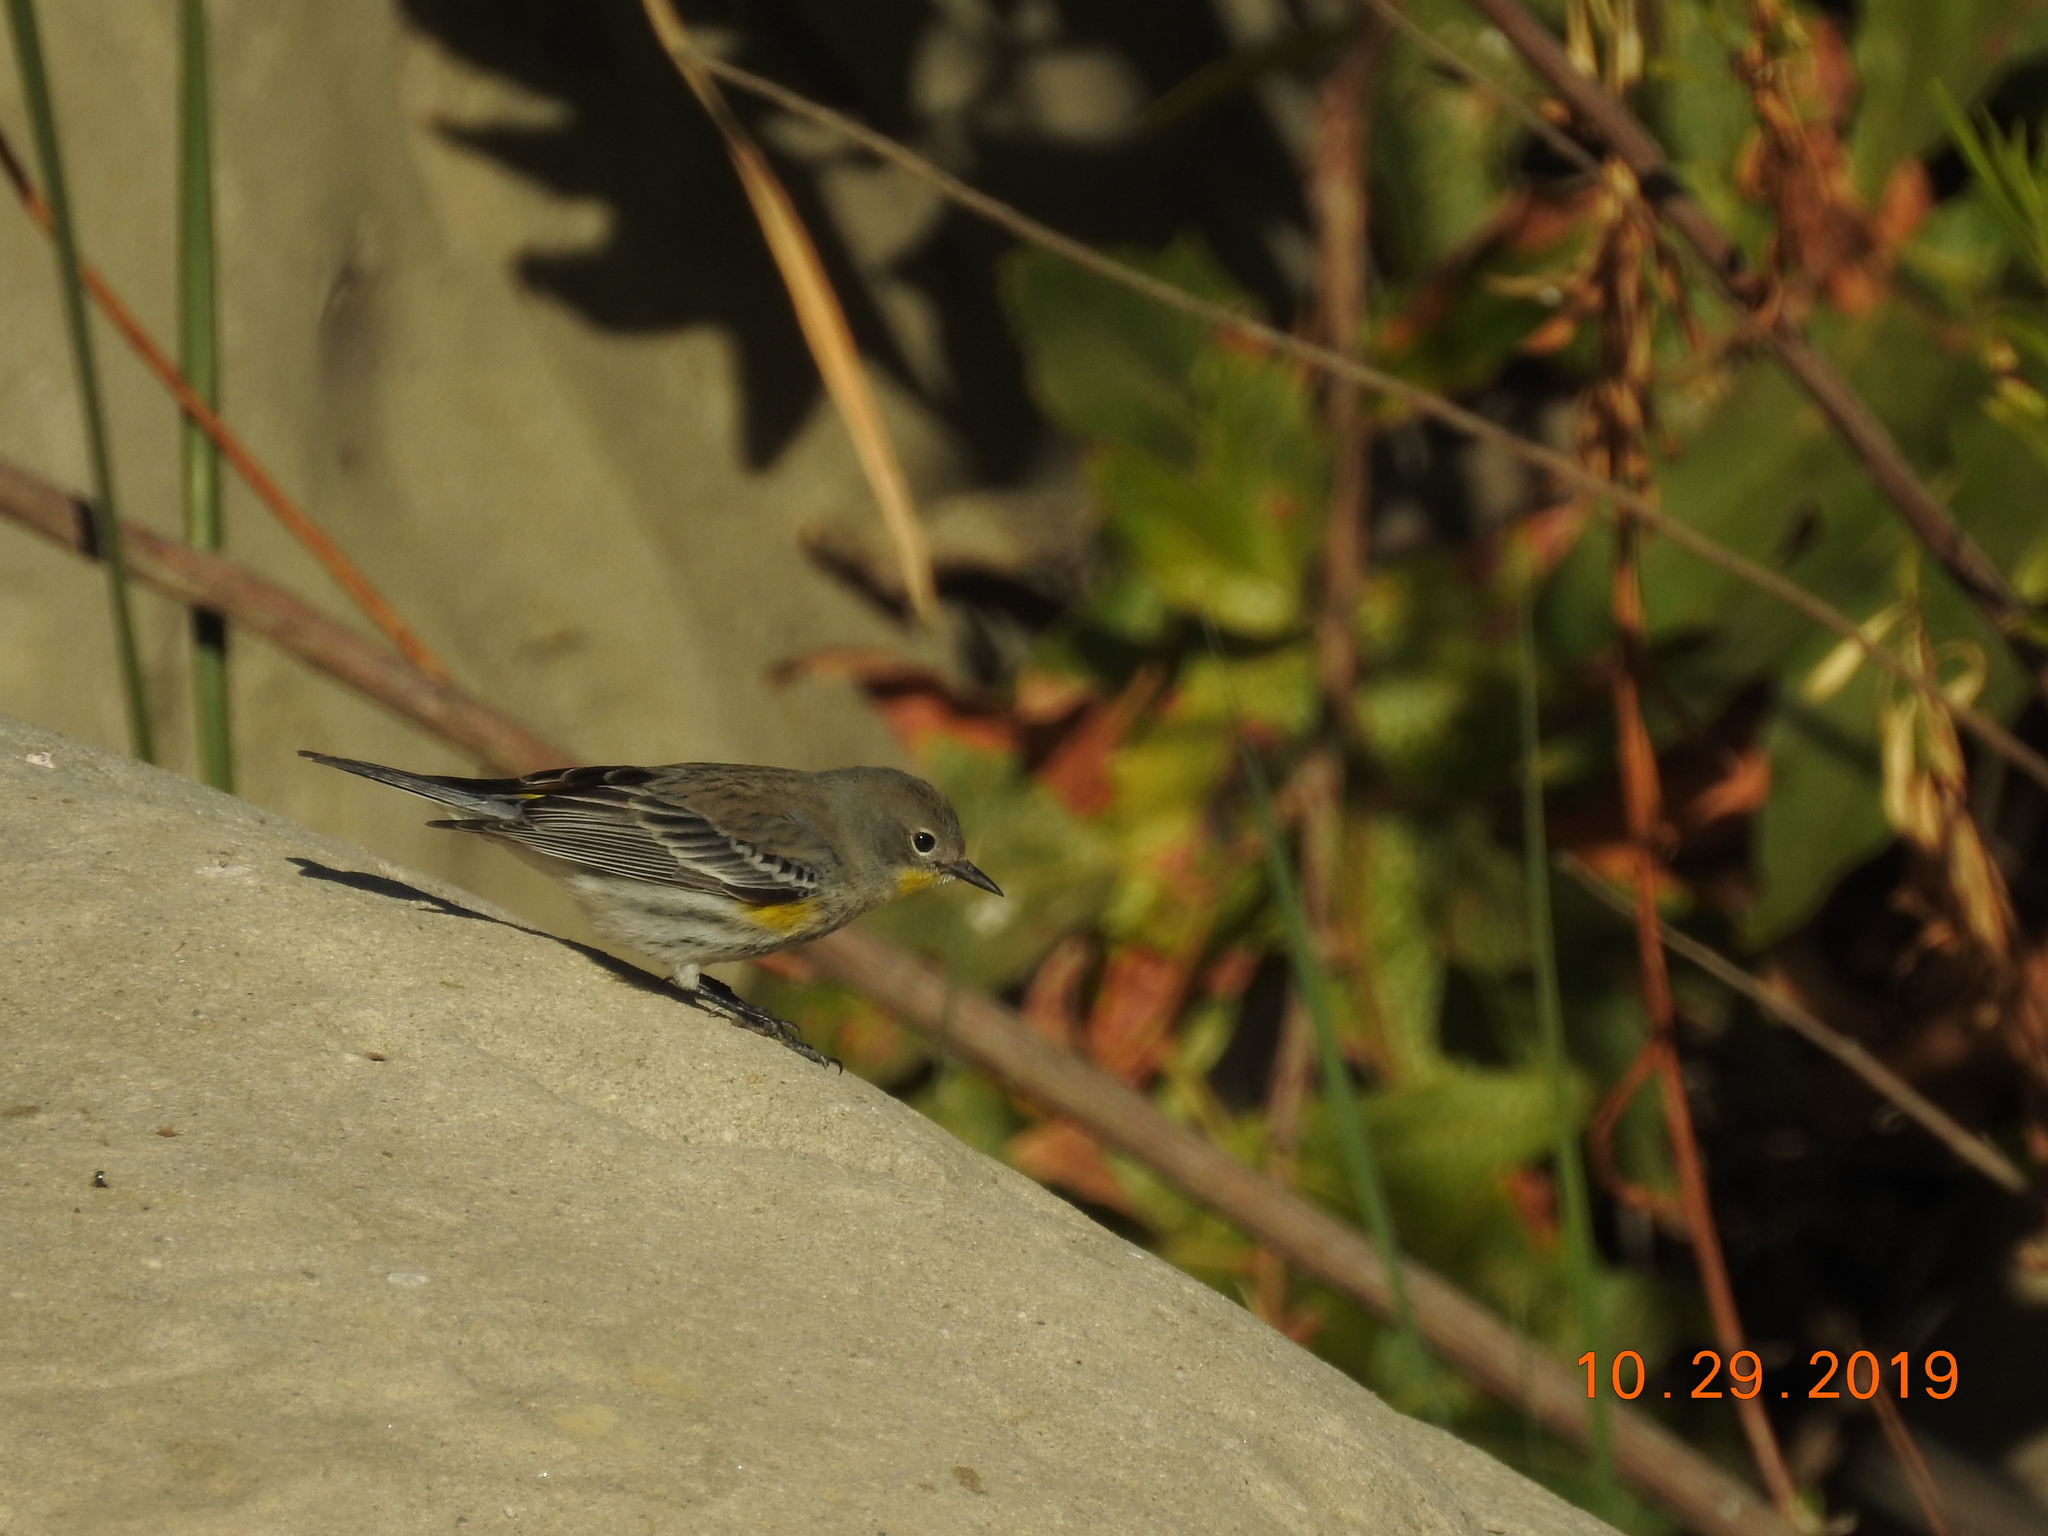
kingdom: Animalia
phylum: Chordata
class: Aves
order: Passeriformes
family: Parulidae
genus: Setophaga
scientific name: Setophaga coronata
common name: Myrtle warbler
